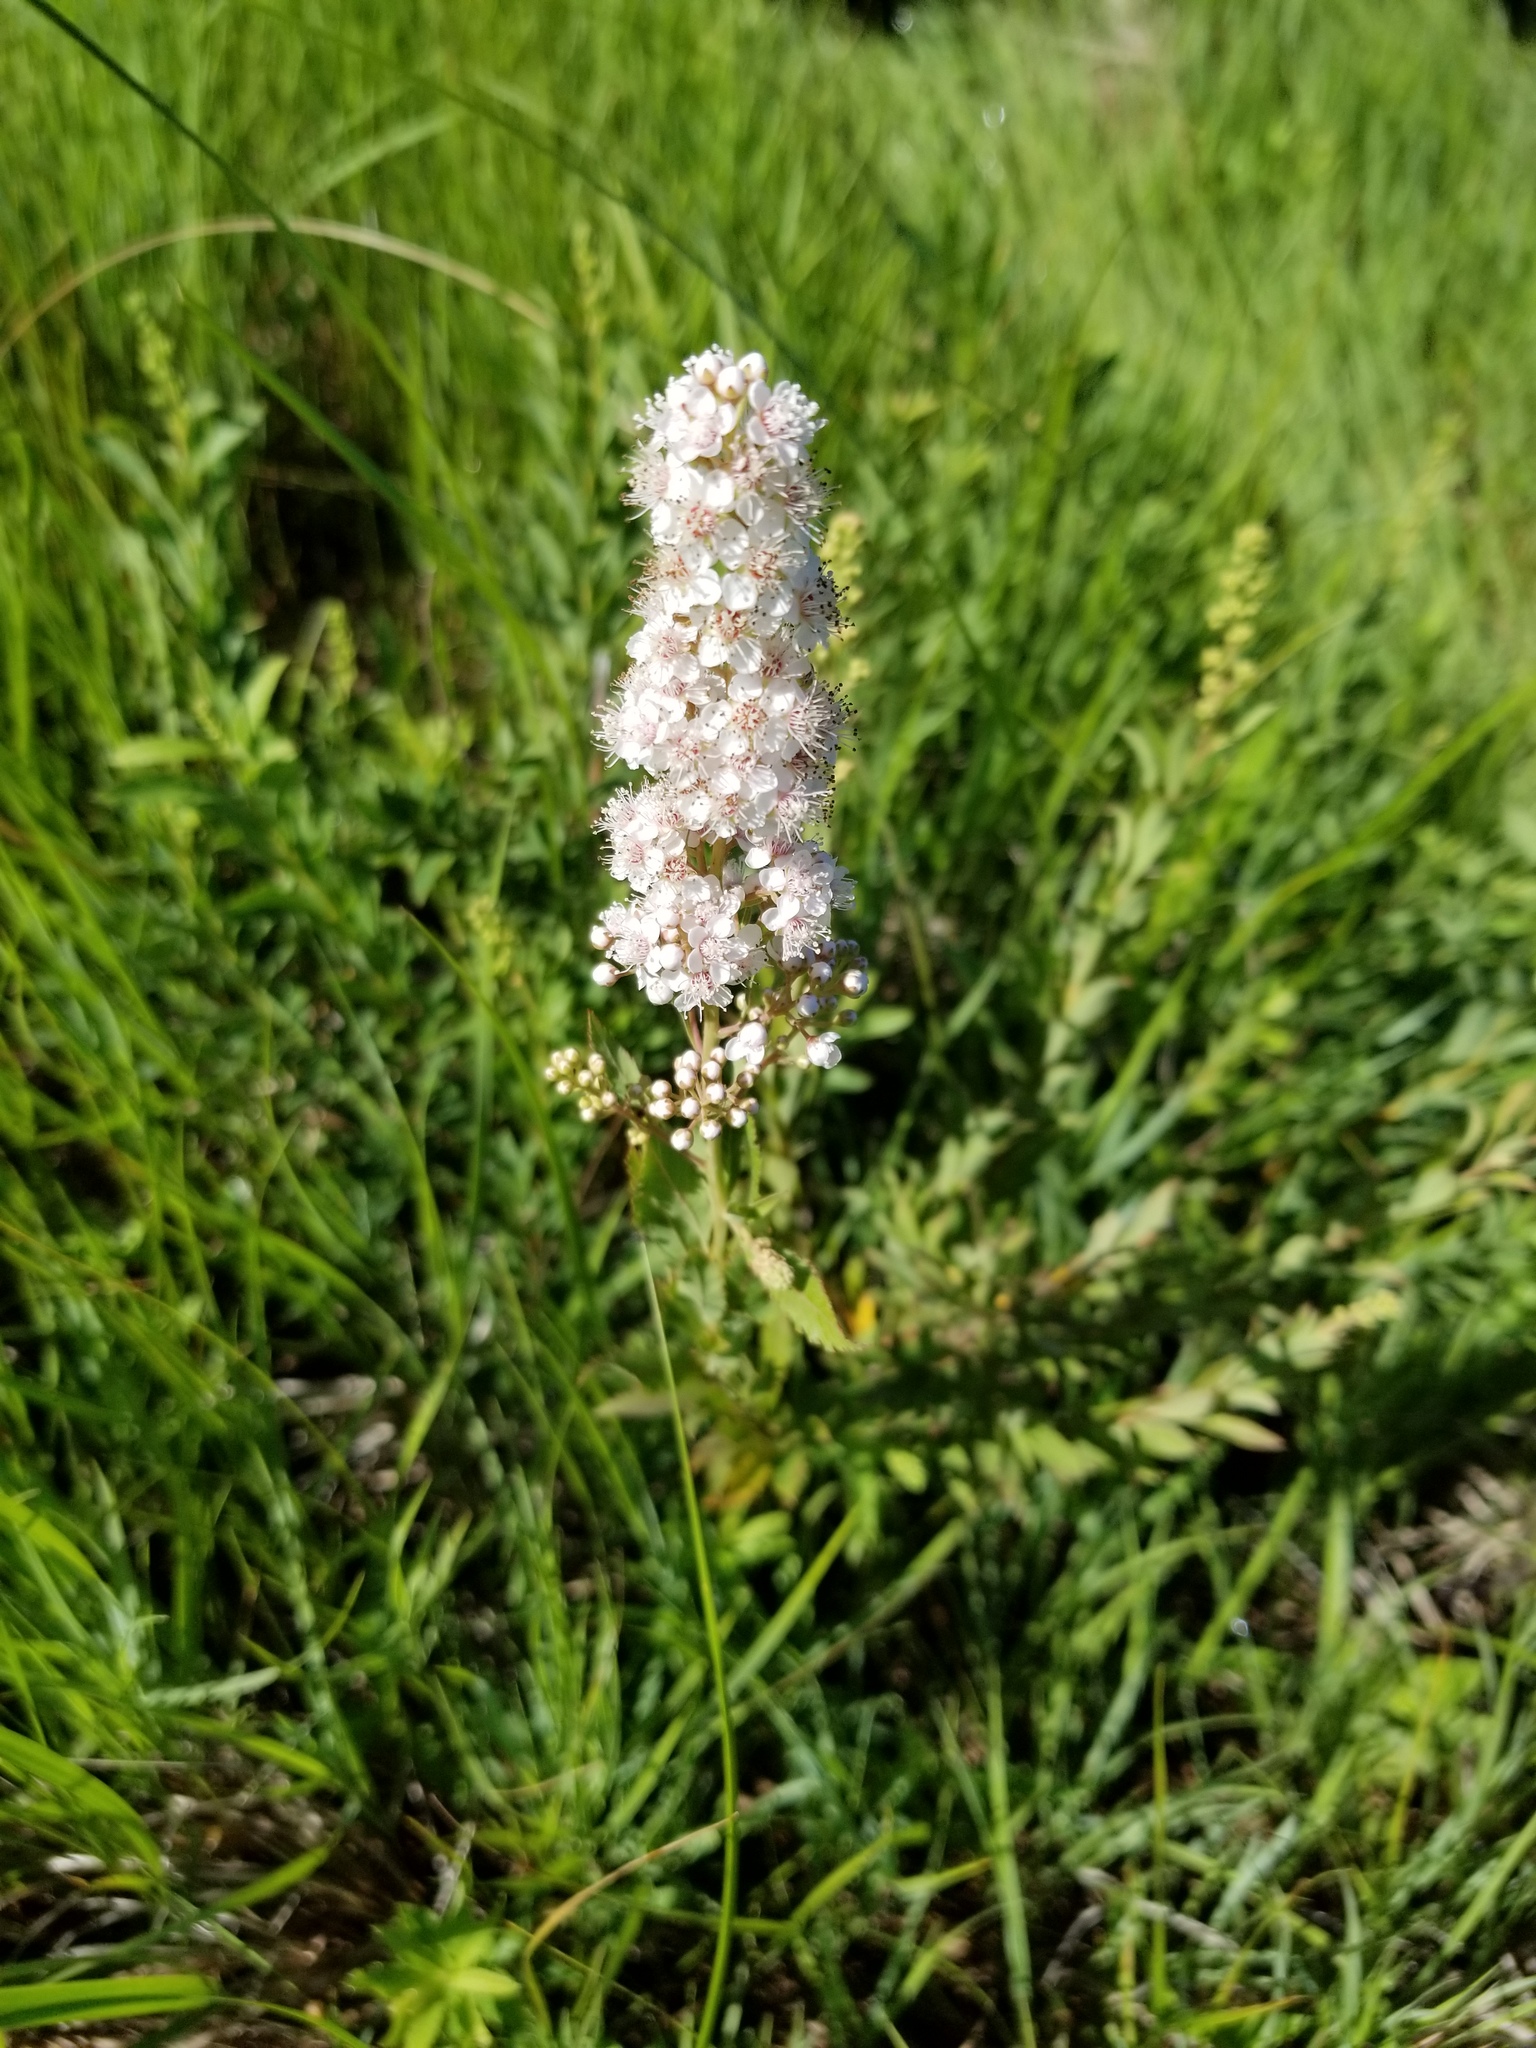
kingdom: Plantae
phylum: Tracheophyta
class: Magnoliopsida
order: Rosales
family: Rosaceae
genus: Spiraea
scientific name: Spiraea alba
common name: Pale bridewort
